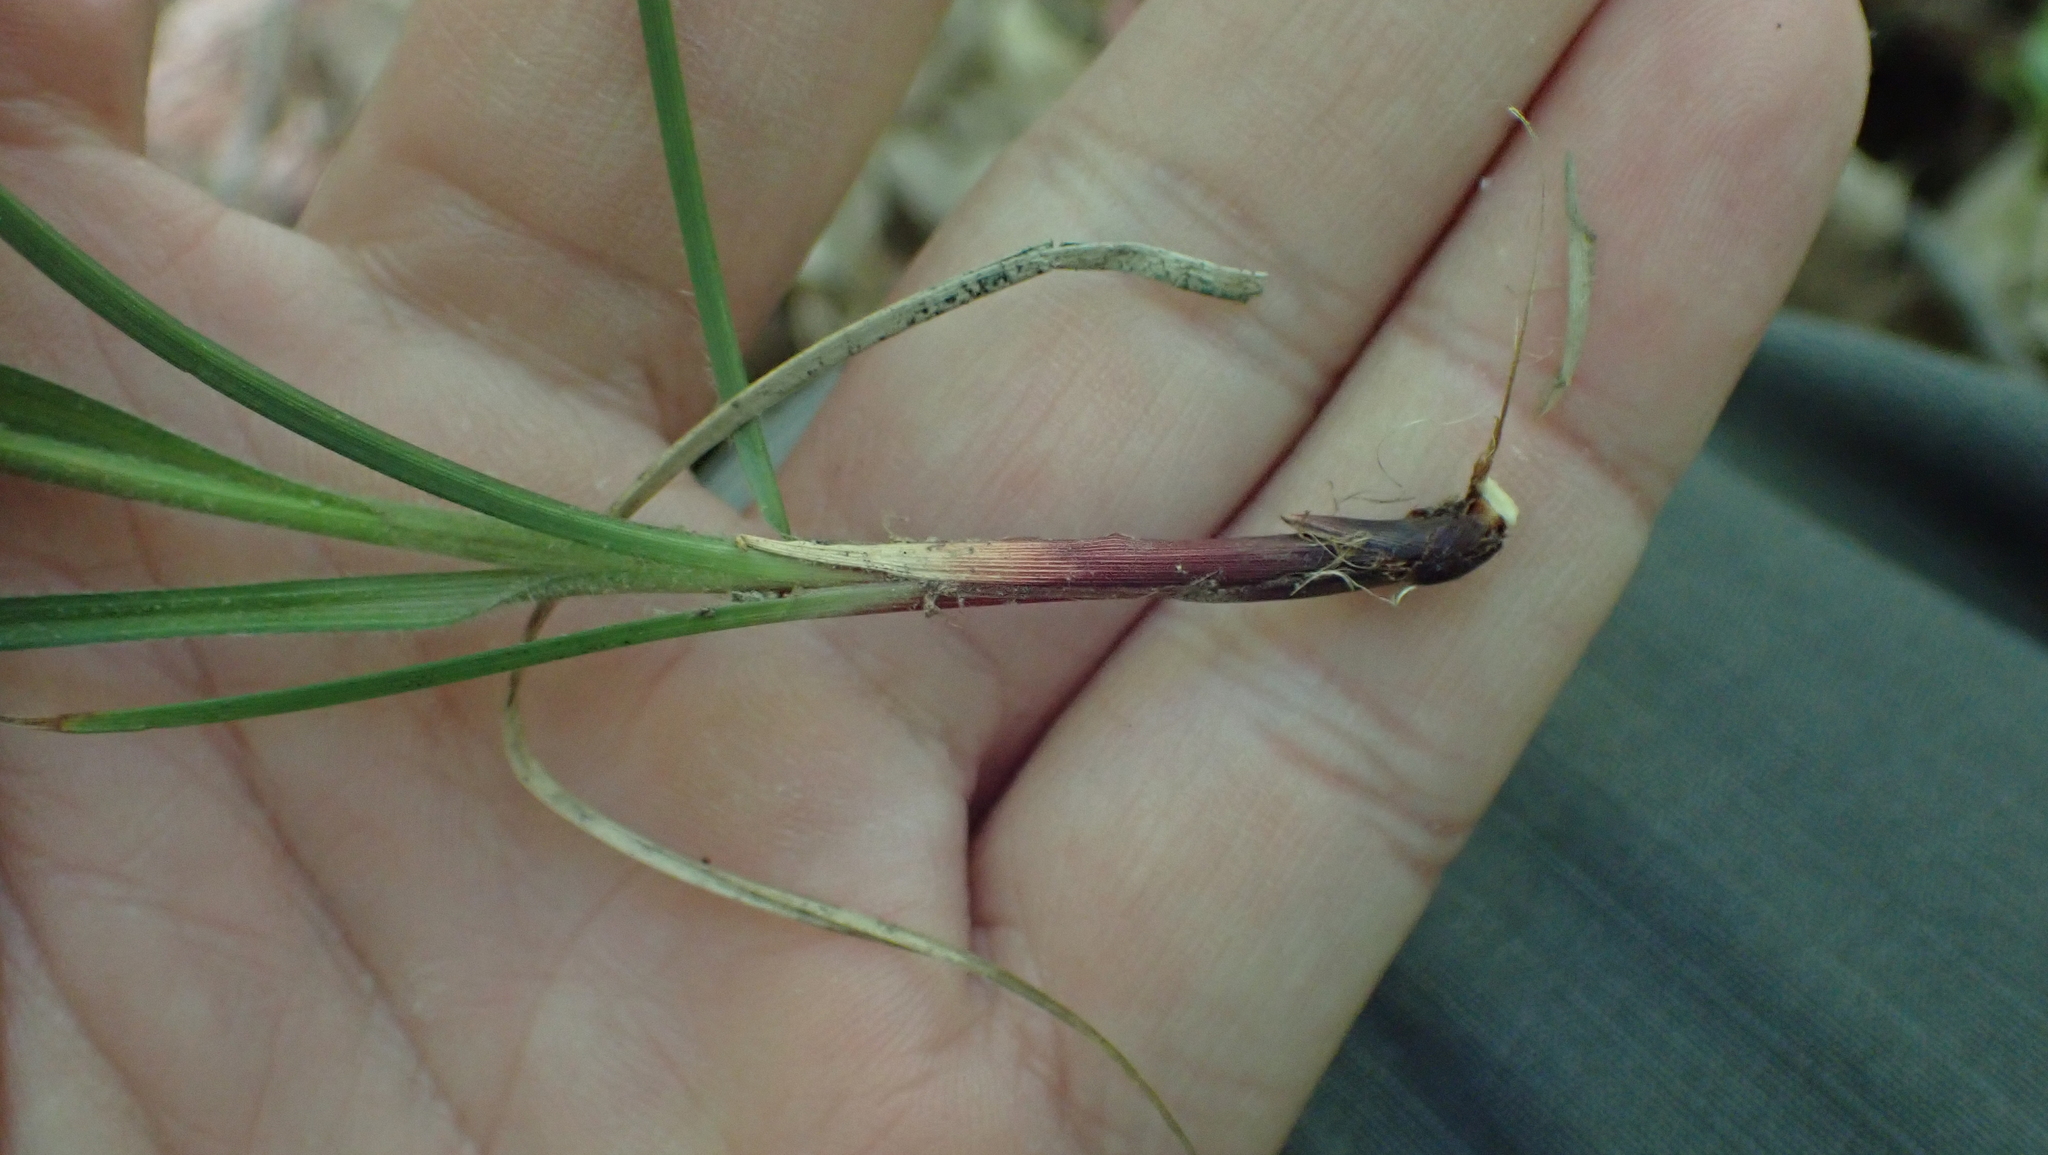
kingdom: Plantae
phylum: Tracheophyta
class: Liliopsida
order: Poales
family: Cyperaceae
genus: Carex
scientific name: Carex hirtifolia
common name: Hairy sedge
